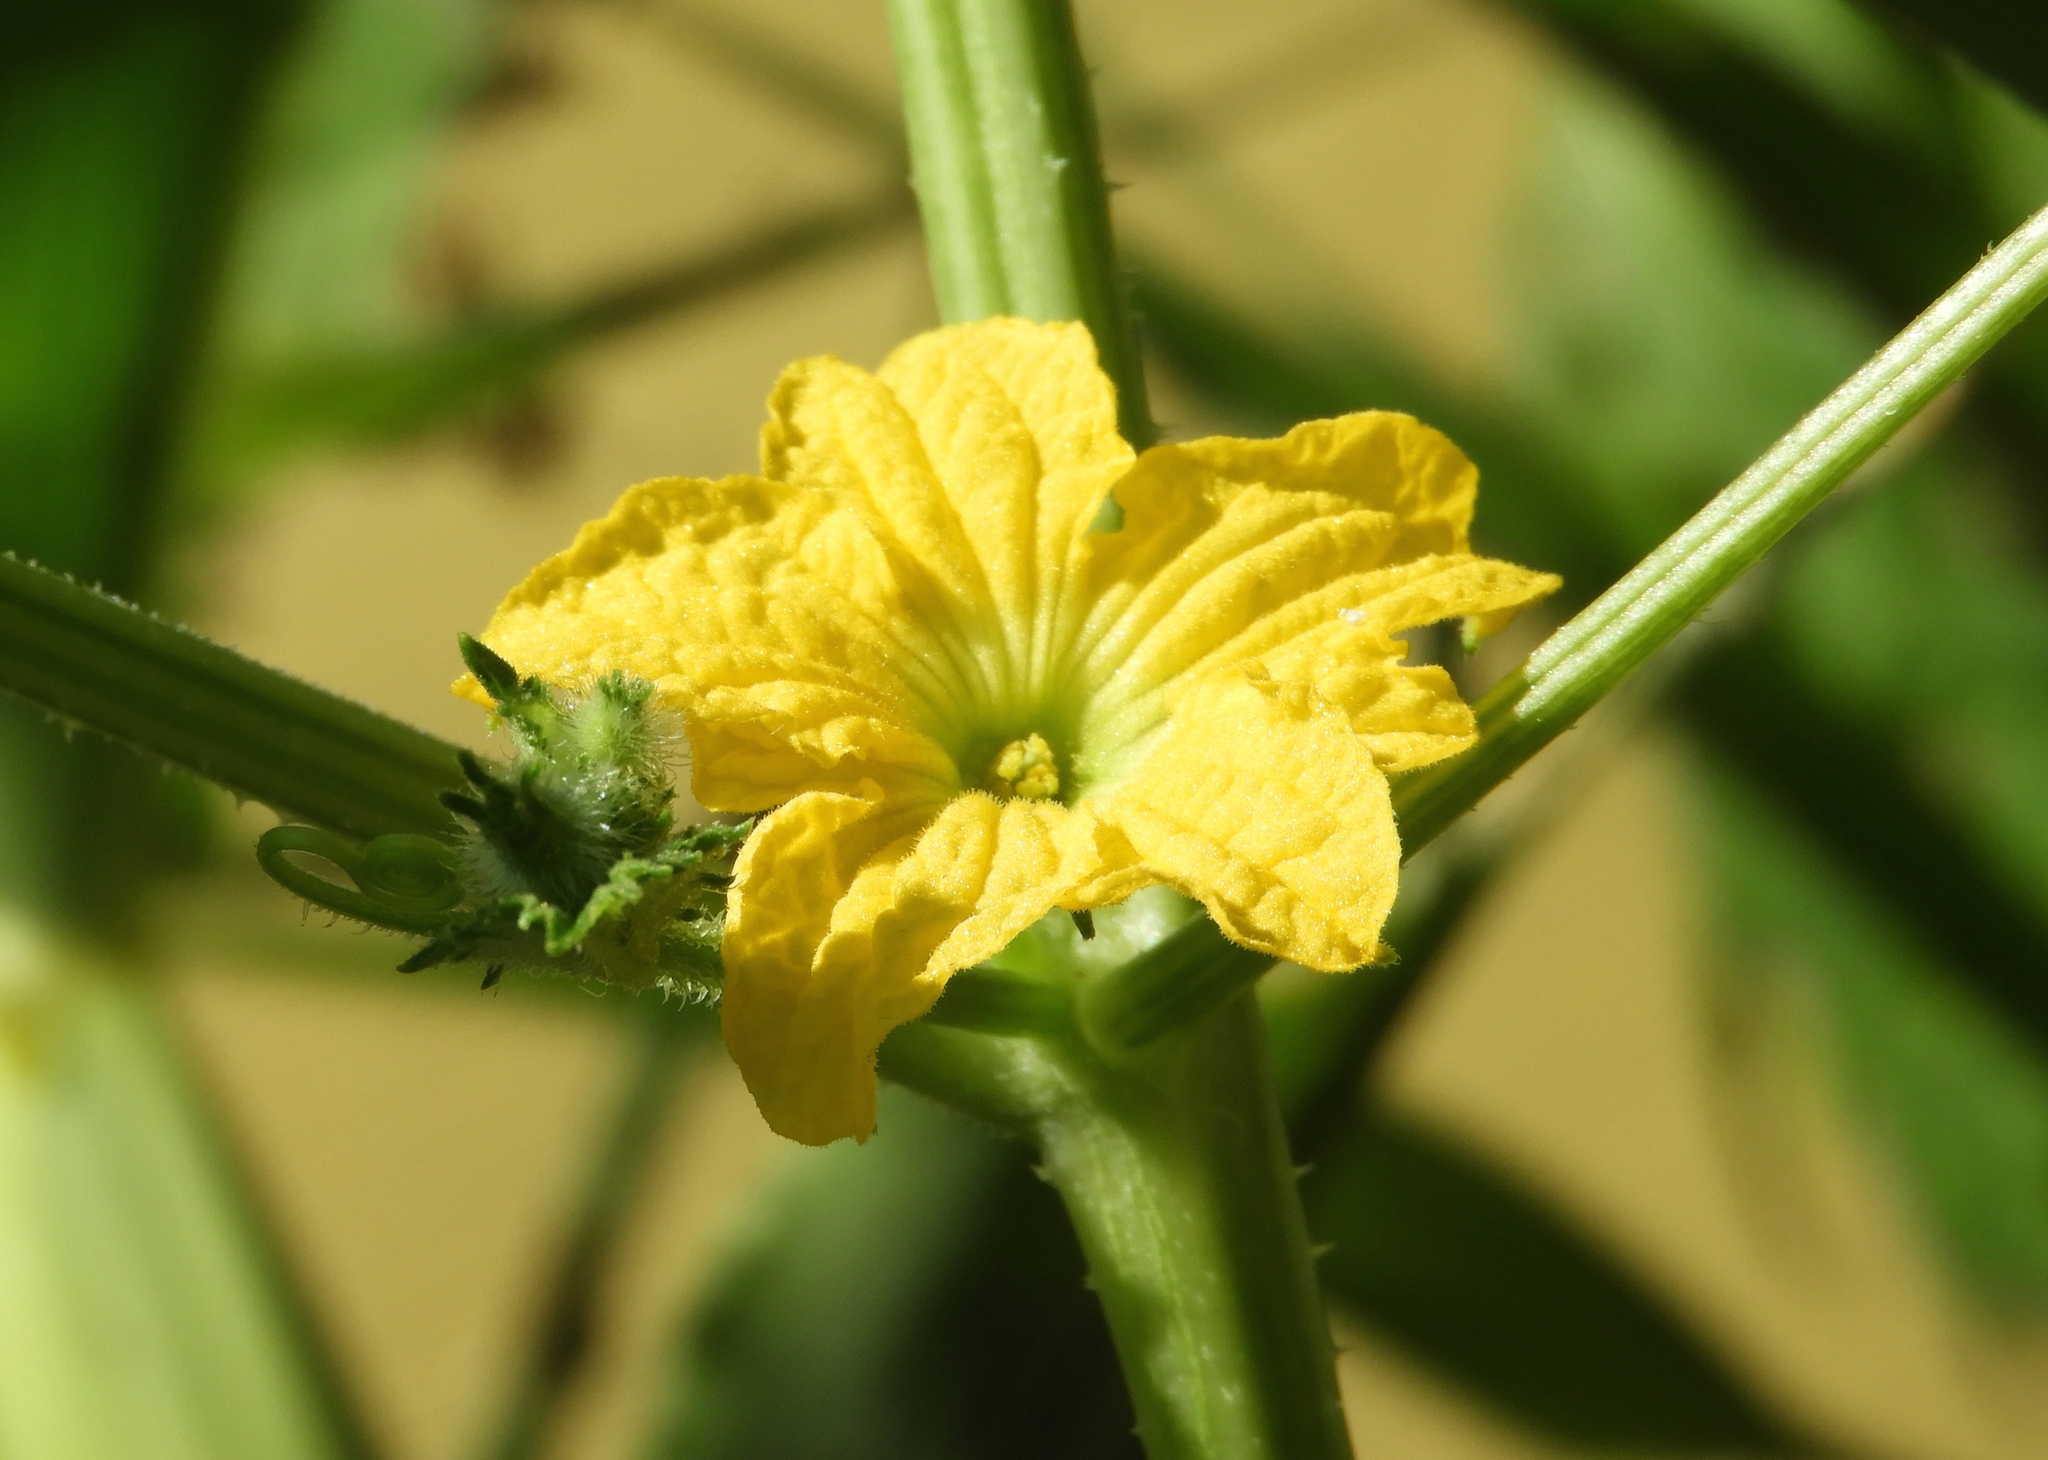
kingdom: Plantae
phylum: Tracheophyta
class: Magnoliopsida
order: Cucurbitales
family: Cucurbitaceae
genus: Cucumis
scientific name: Cucumis melo
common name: Melon
